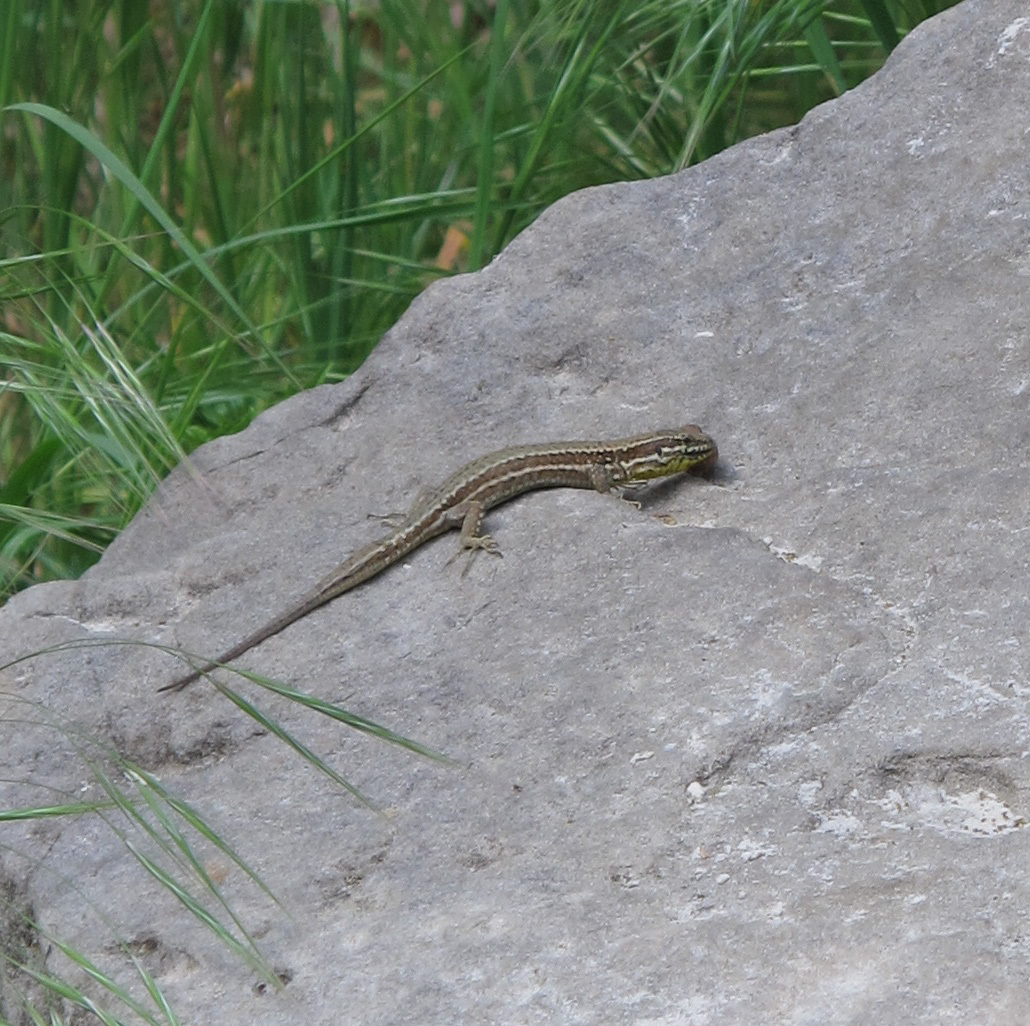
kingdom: Animalia
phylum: Chordata
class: Squamata
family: Lacertidae
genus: Podarcis
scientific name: Podarcis muralis
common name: Common wall lizard
